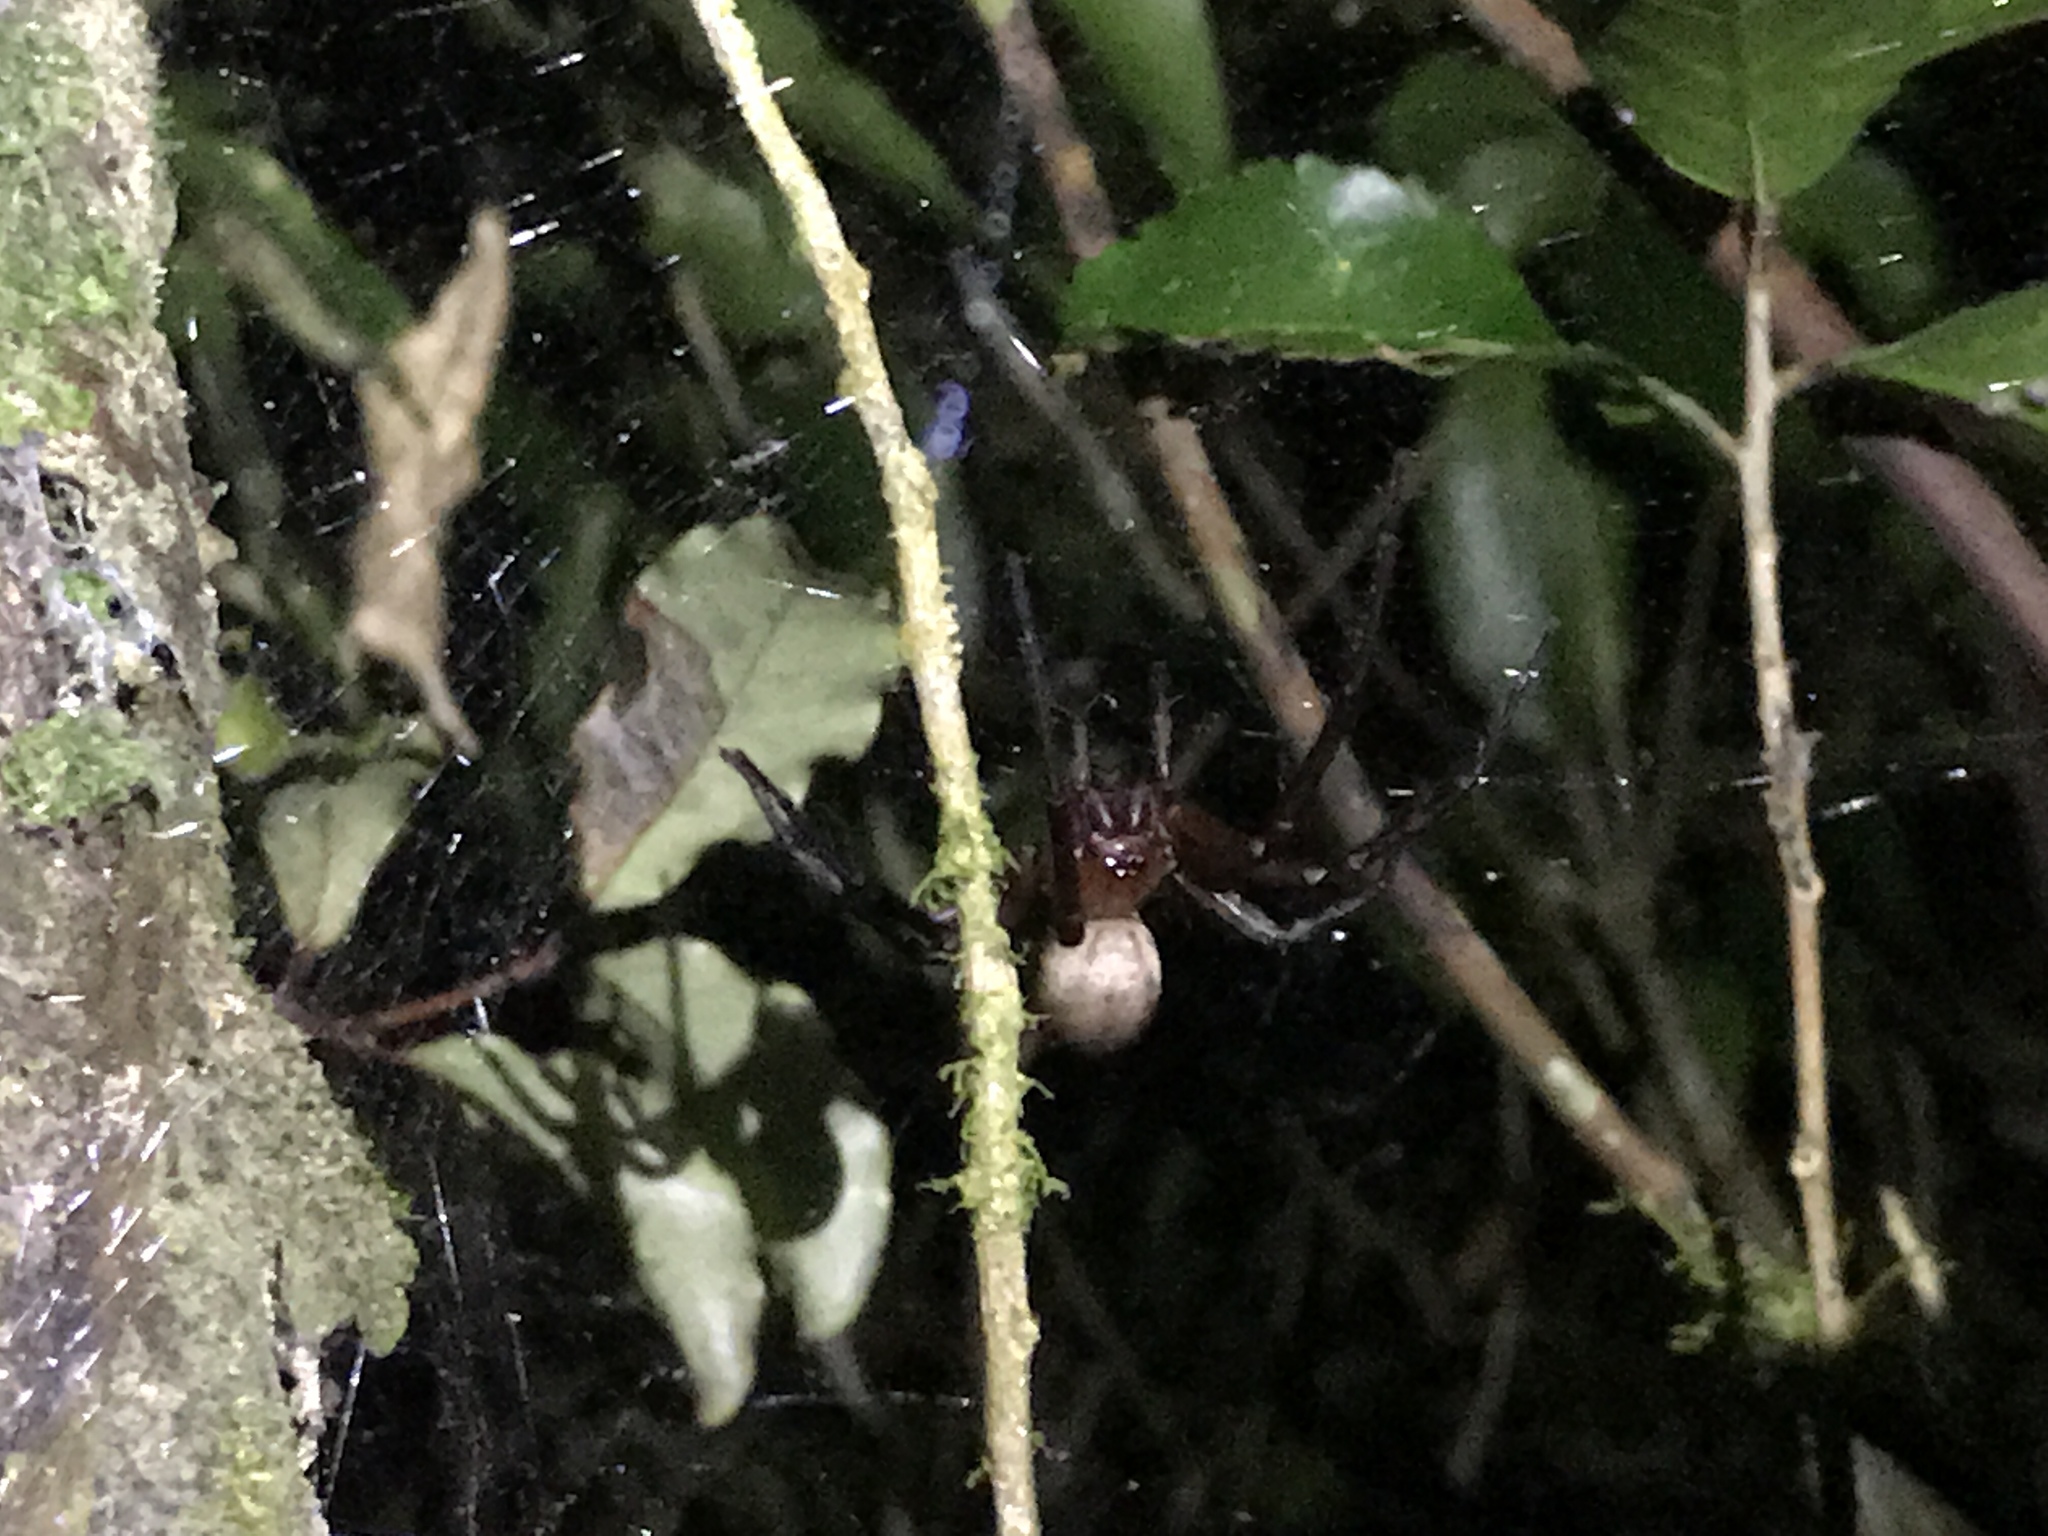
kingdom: Animalia
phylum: Arthropoda
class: Arachnida
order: Araneae
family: Desidae
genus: Cambridgea
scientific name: Cambridgea foliata
